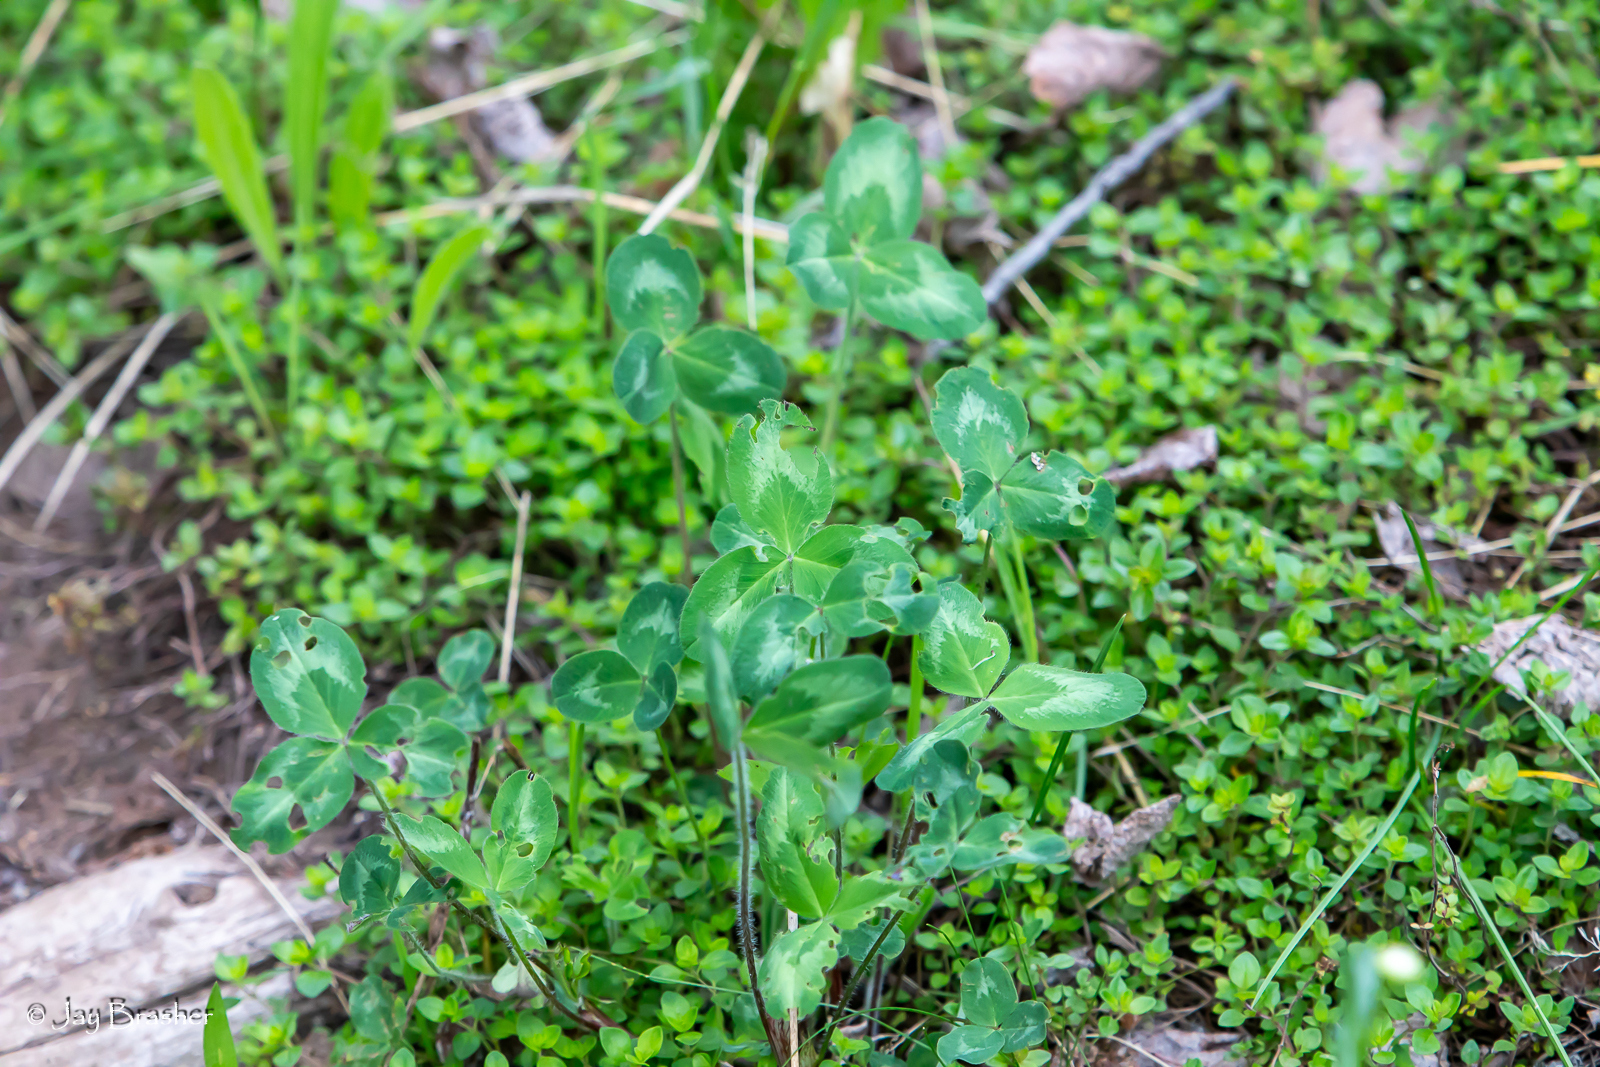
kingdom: Plantae
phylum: Tracheophyta
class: Magnoliopsida
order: Fabales
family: Fabaceae
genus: Trifolium
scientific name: Trifolium pratense
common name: Red clover
